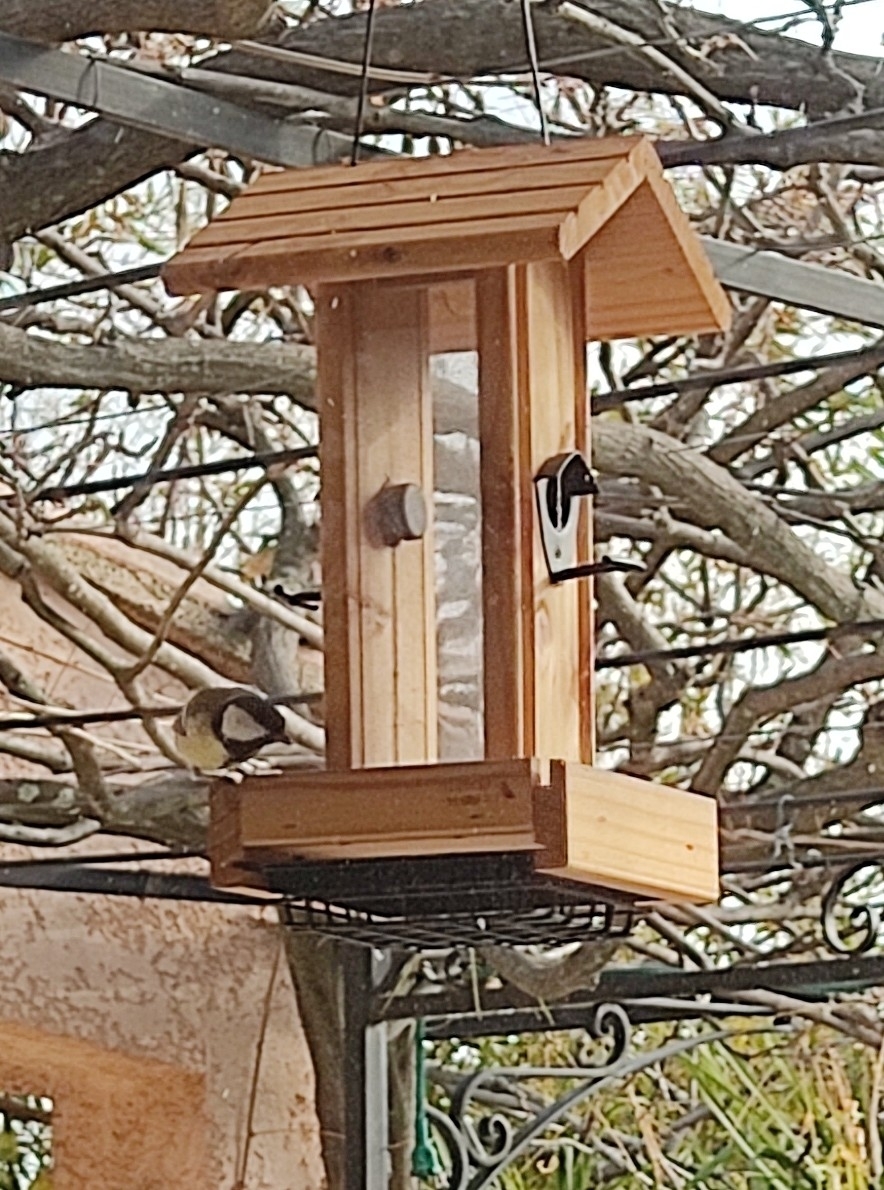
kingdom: Animalia
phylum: Chordata
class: Aves
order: Passeriformes
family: Paridae
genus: Parus
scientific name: Parus major
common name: Great tit
